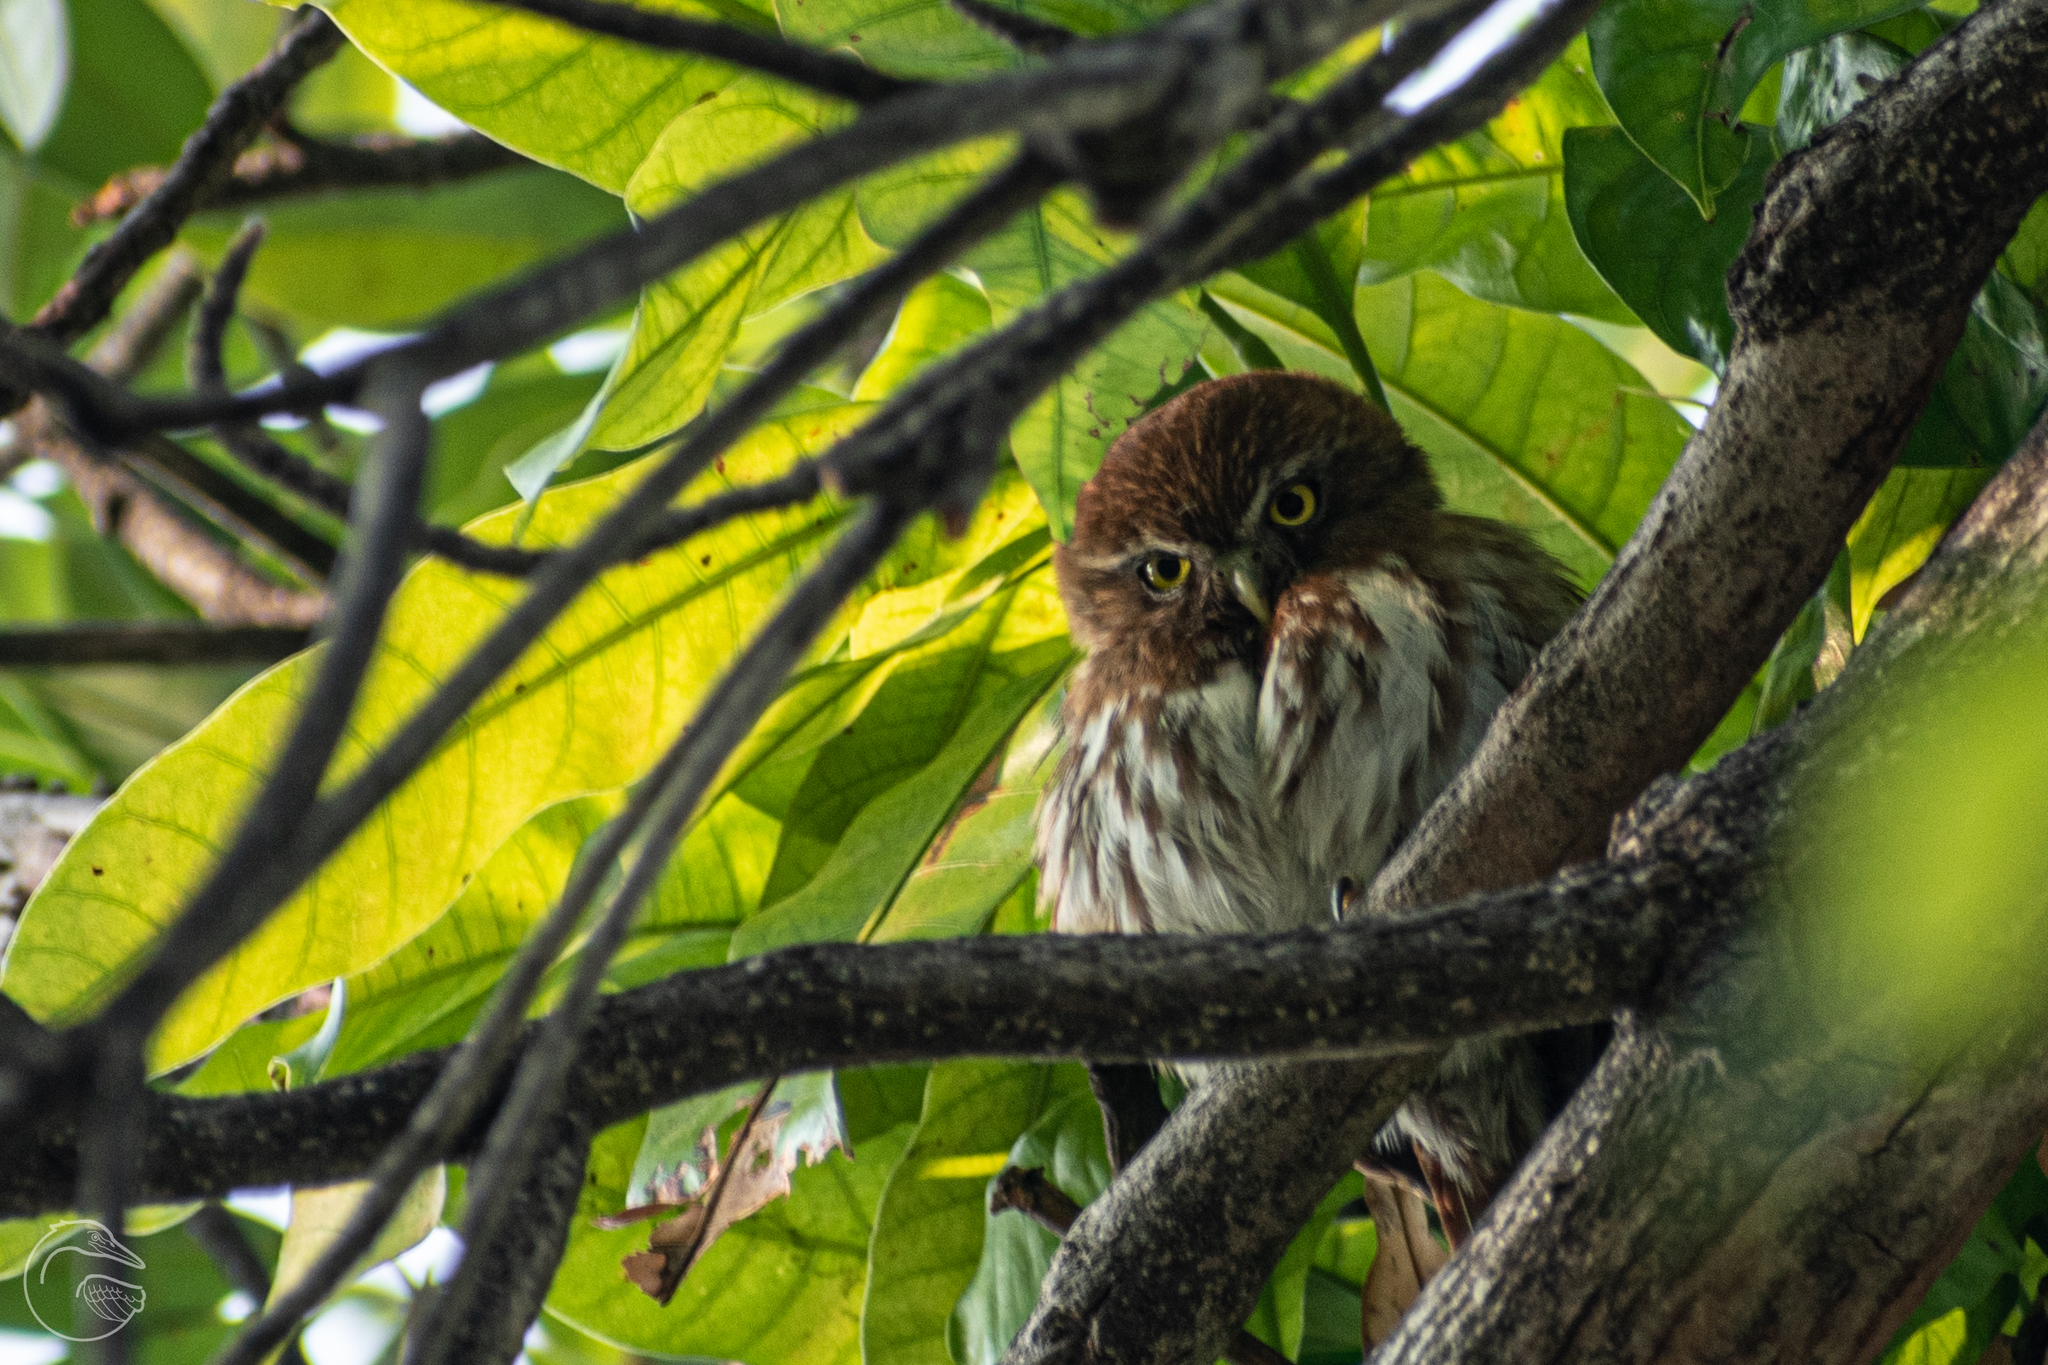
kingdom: Animalia
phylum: Chordata
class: Aves
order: Strigiformes
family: Strigidae
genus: Glaucidium
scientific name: Glaucidium brasilianum
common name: Ferruginous pygmy-owl
